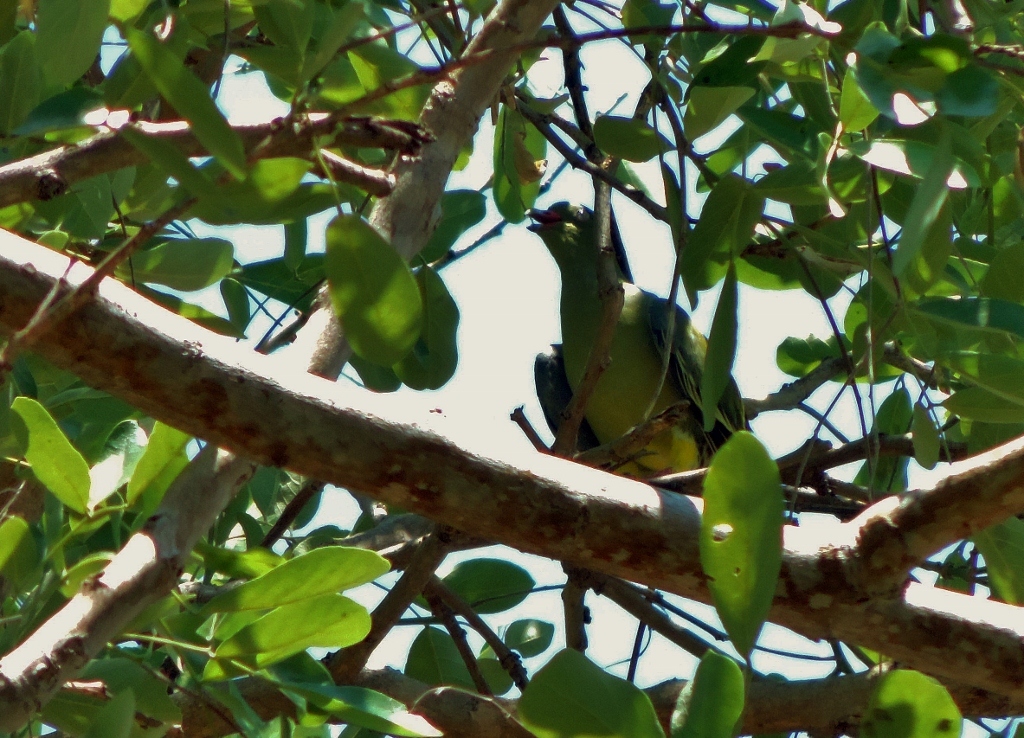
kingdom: Animalia
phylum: Chordata
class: Aves
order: Columbiformes
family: Columbidae
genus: Treron
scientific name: Treron calvus
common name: African green pigeon
